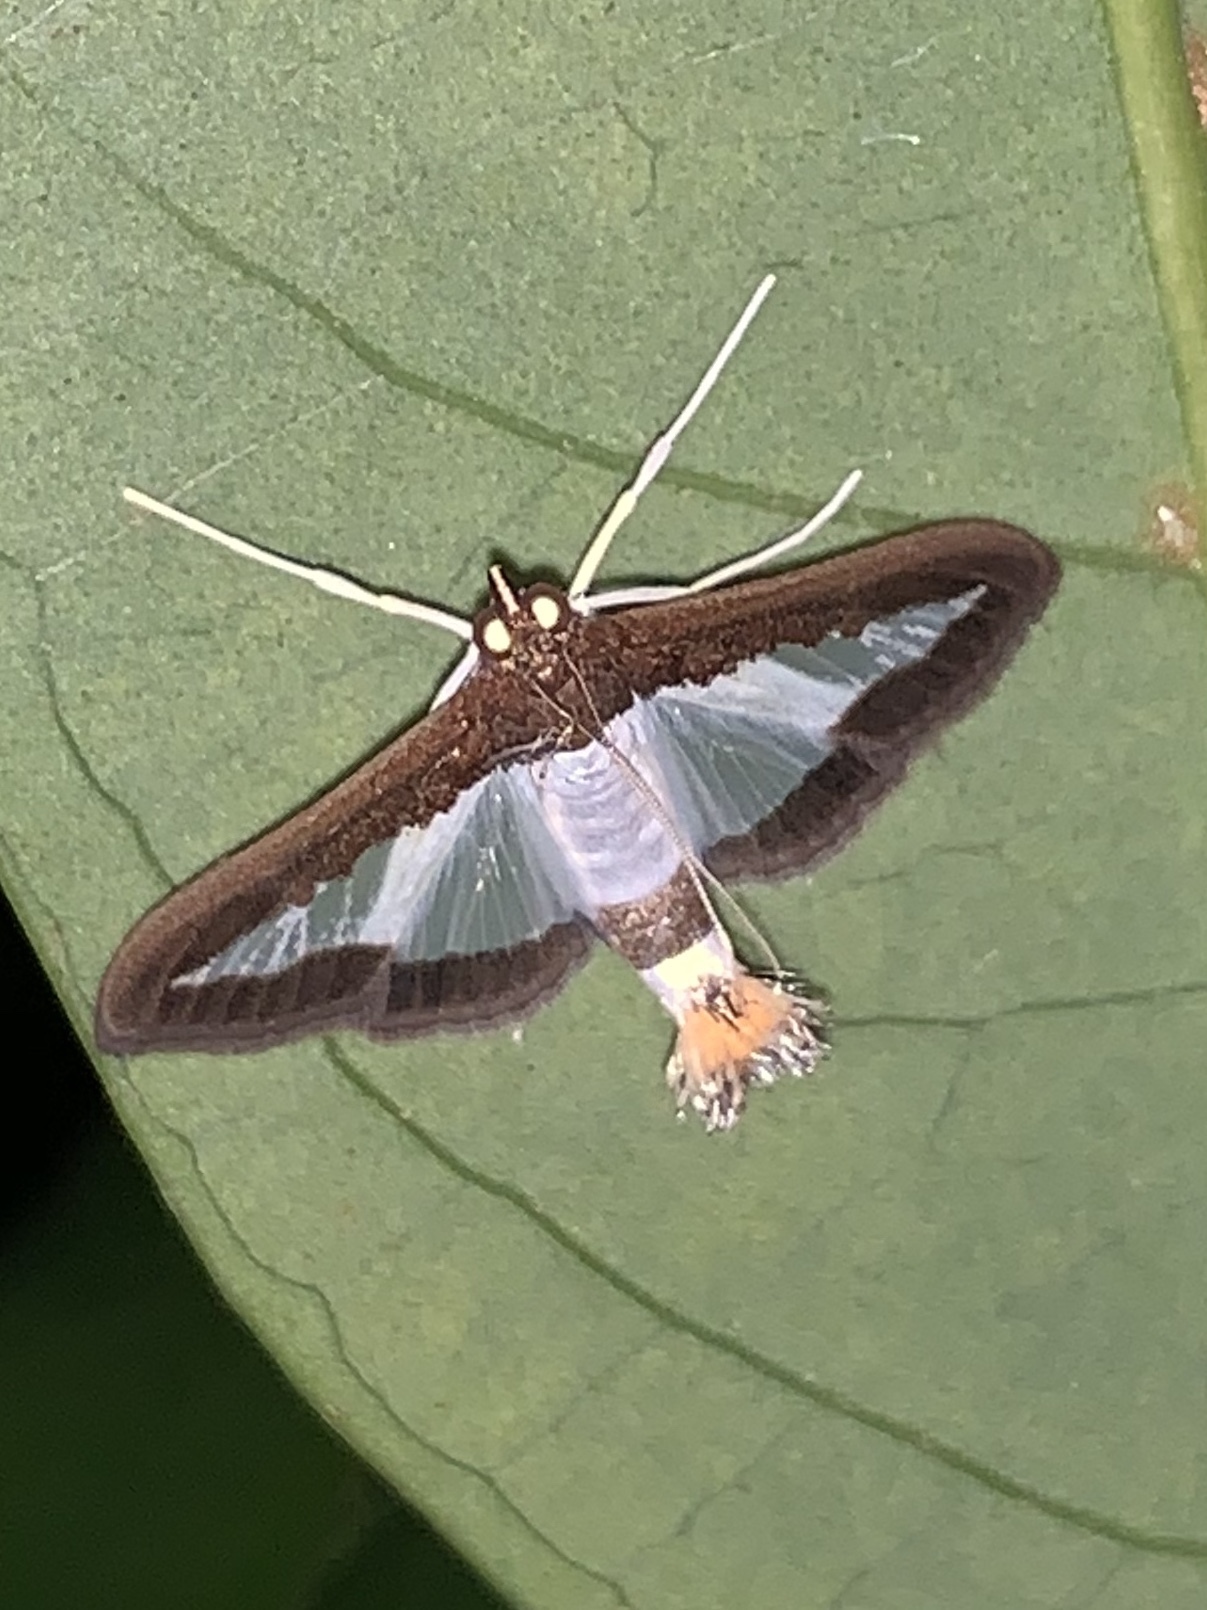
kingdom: Animalia
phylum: Arthropoda
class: Insecta
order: Lepidoptera
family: Crambidae
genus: Diaphania
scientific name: Diaphania hyalinata
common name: Melonworm
